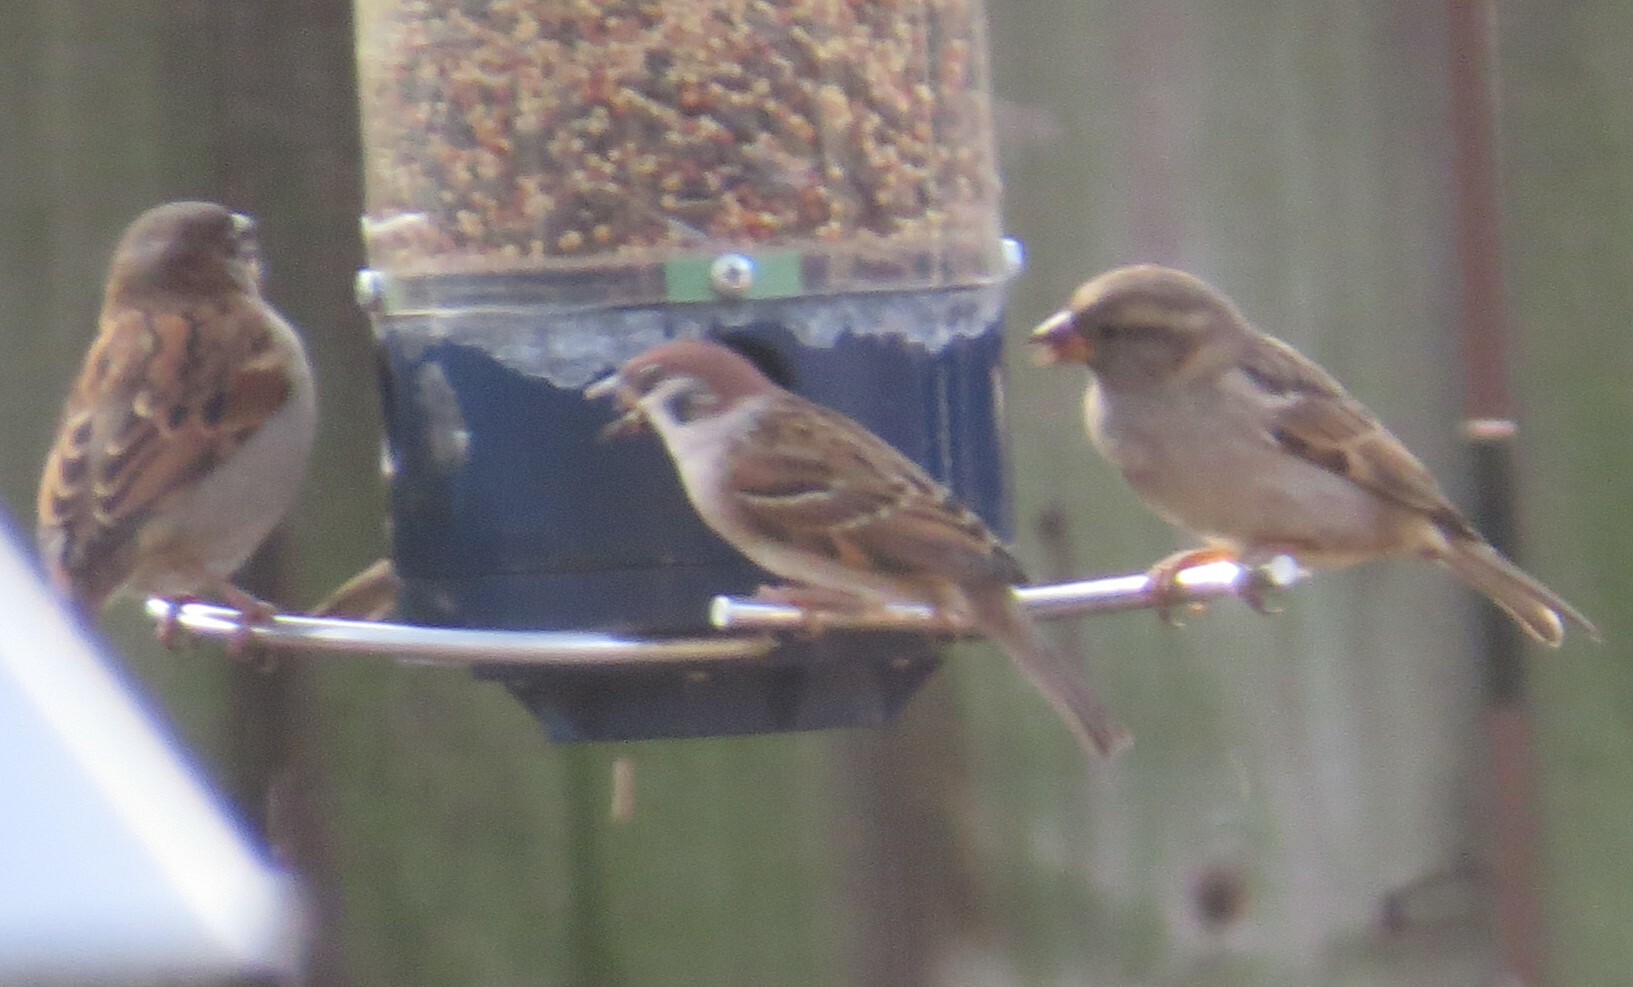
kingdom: Animalia
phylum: Chordata
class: Aves
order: Passeriformes
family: Passeridae
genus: Passer
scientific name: Passer montanus
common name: Eurasian tree sparrow
